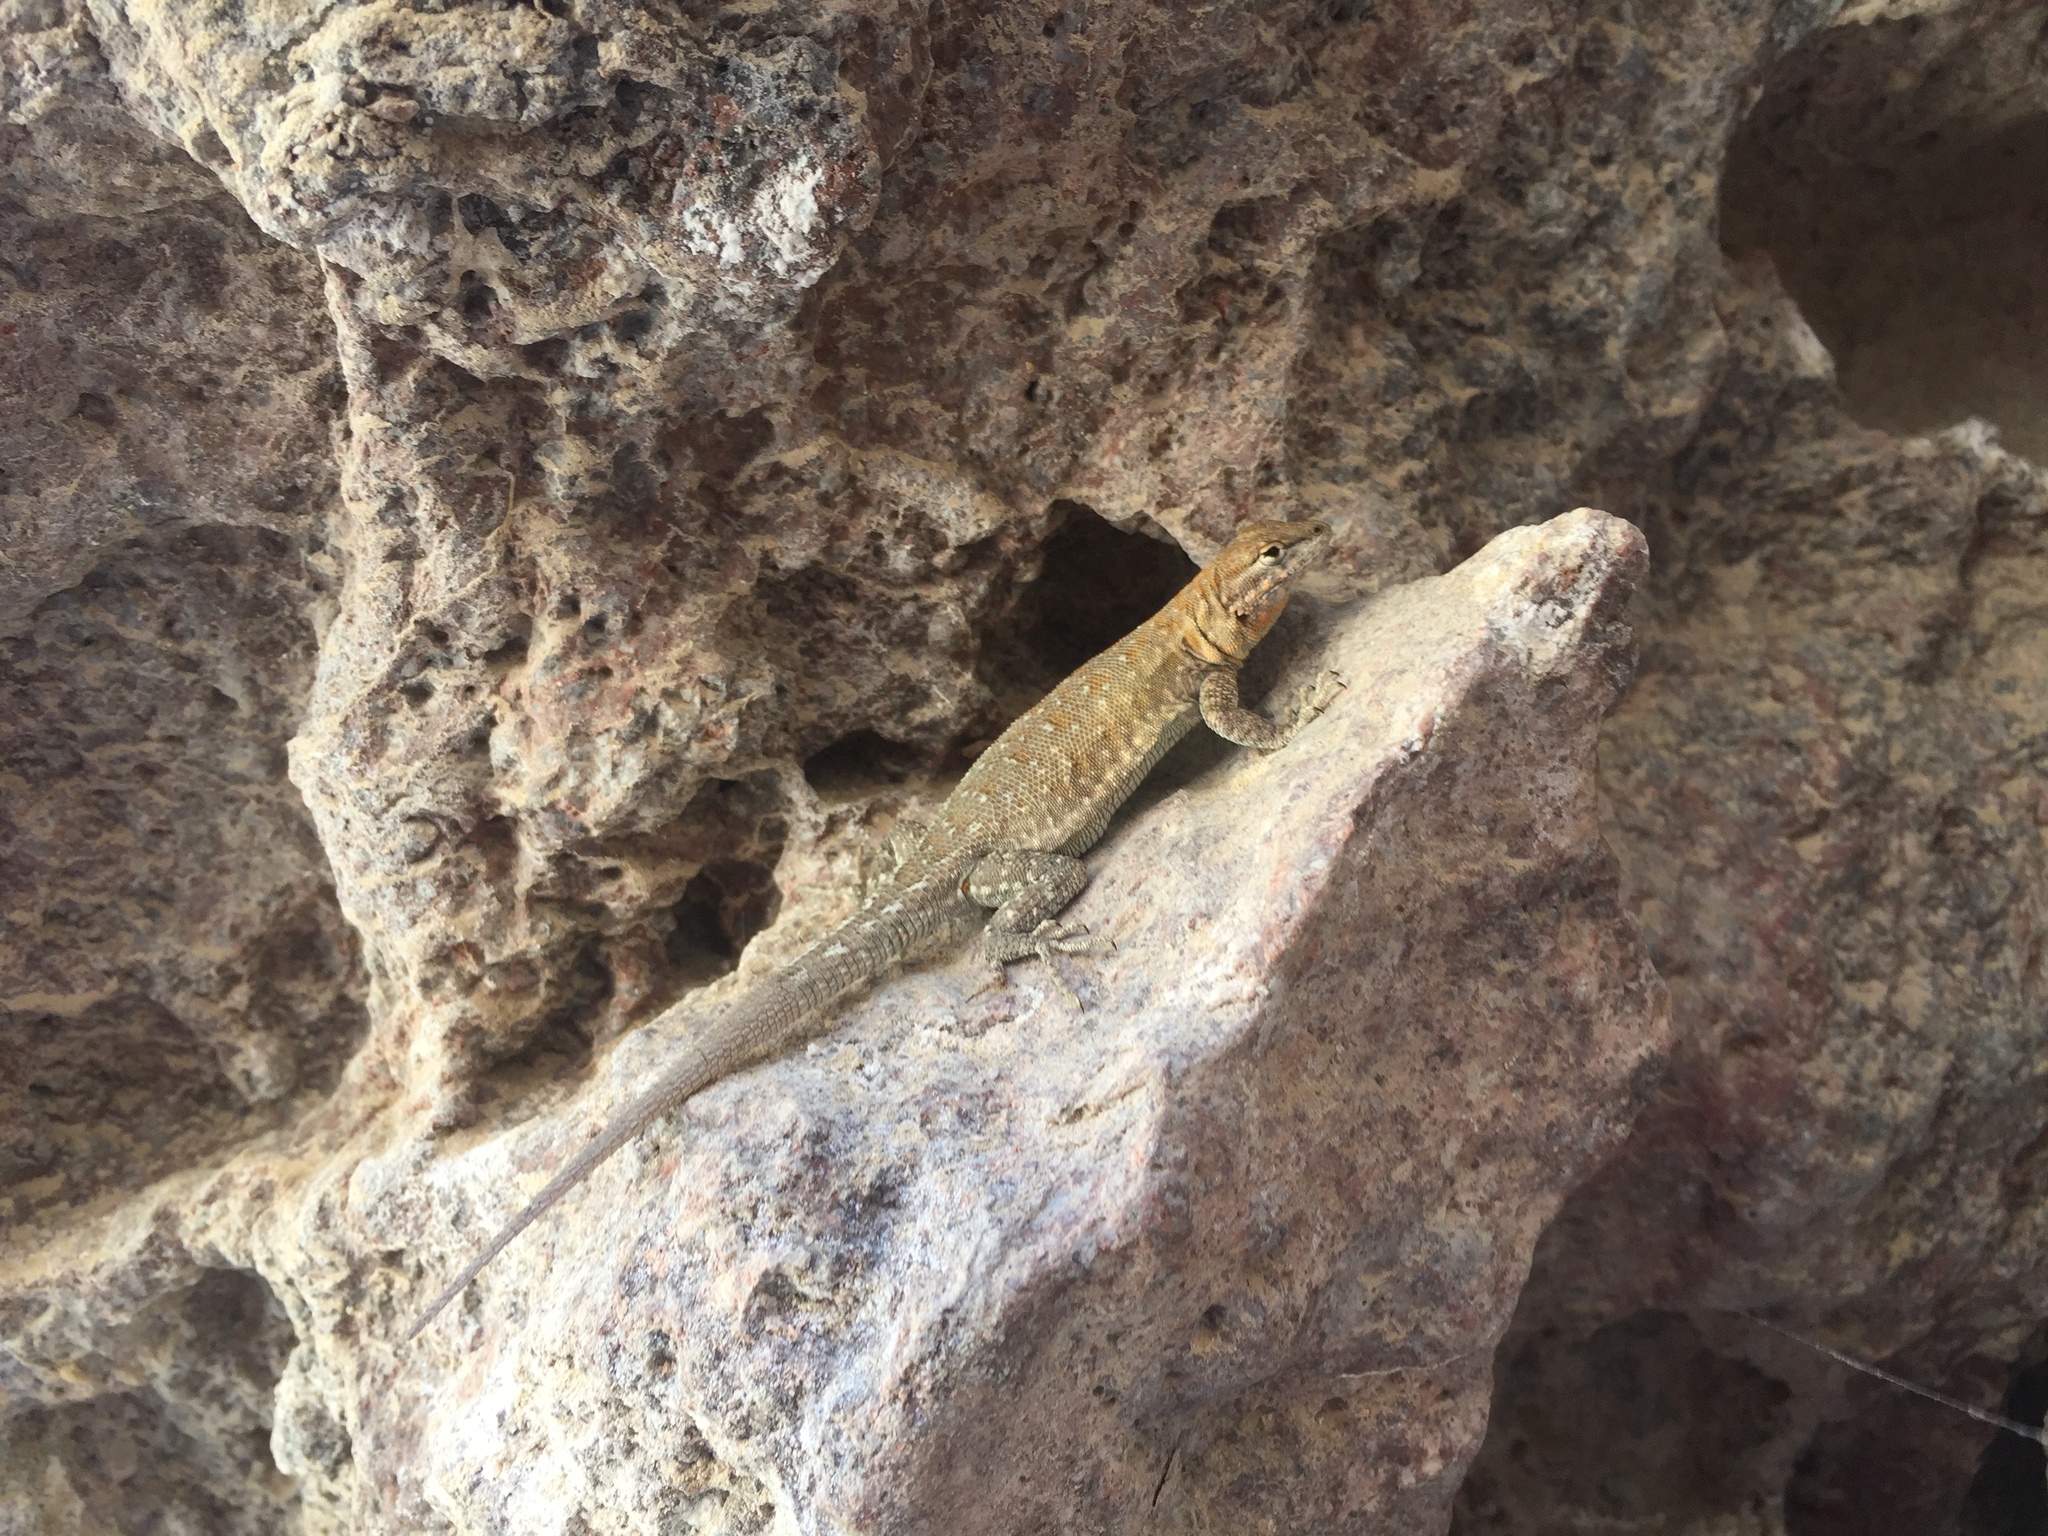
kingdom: Animalia
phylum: Chordata
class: Squamata
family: Phrynosomatidae
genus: Uta
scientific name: Uta stansburiana
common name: Side-blotched lizard
